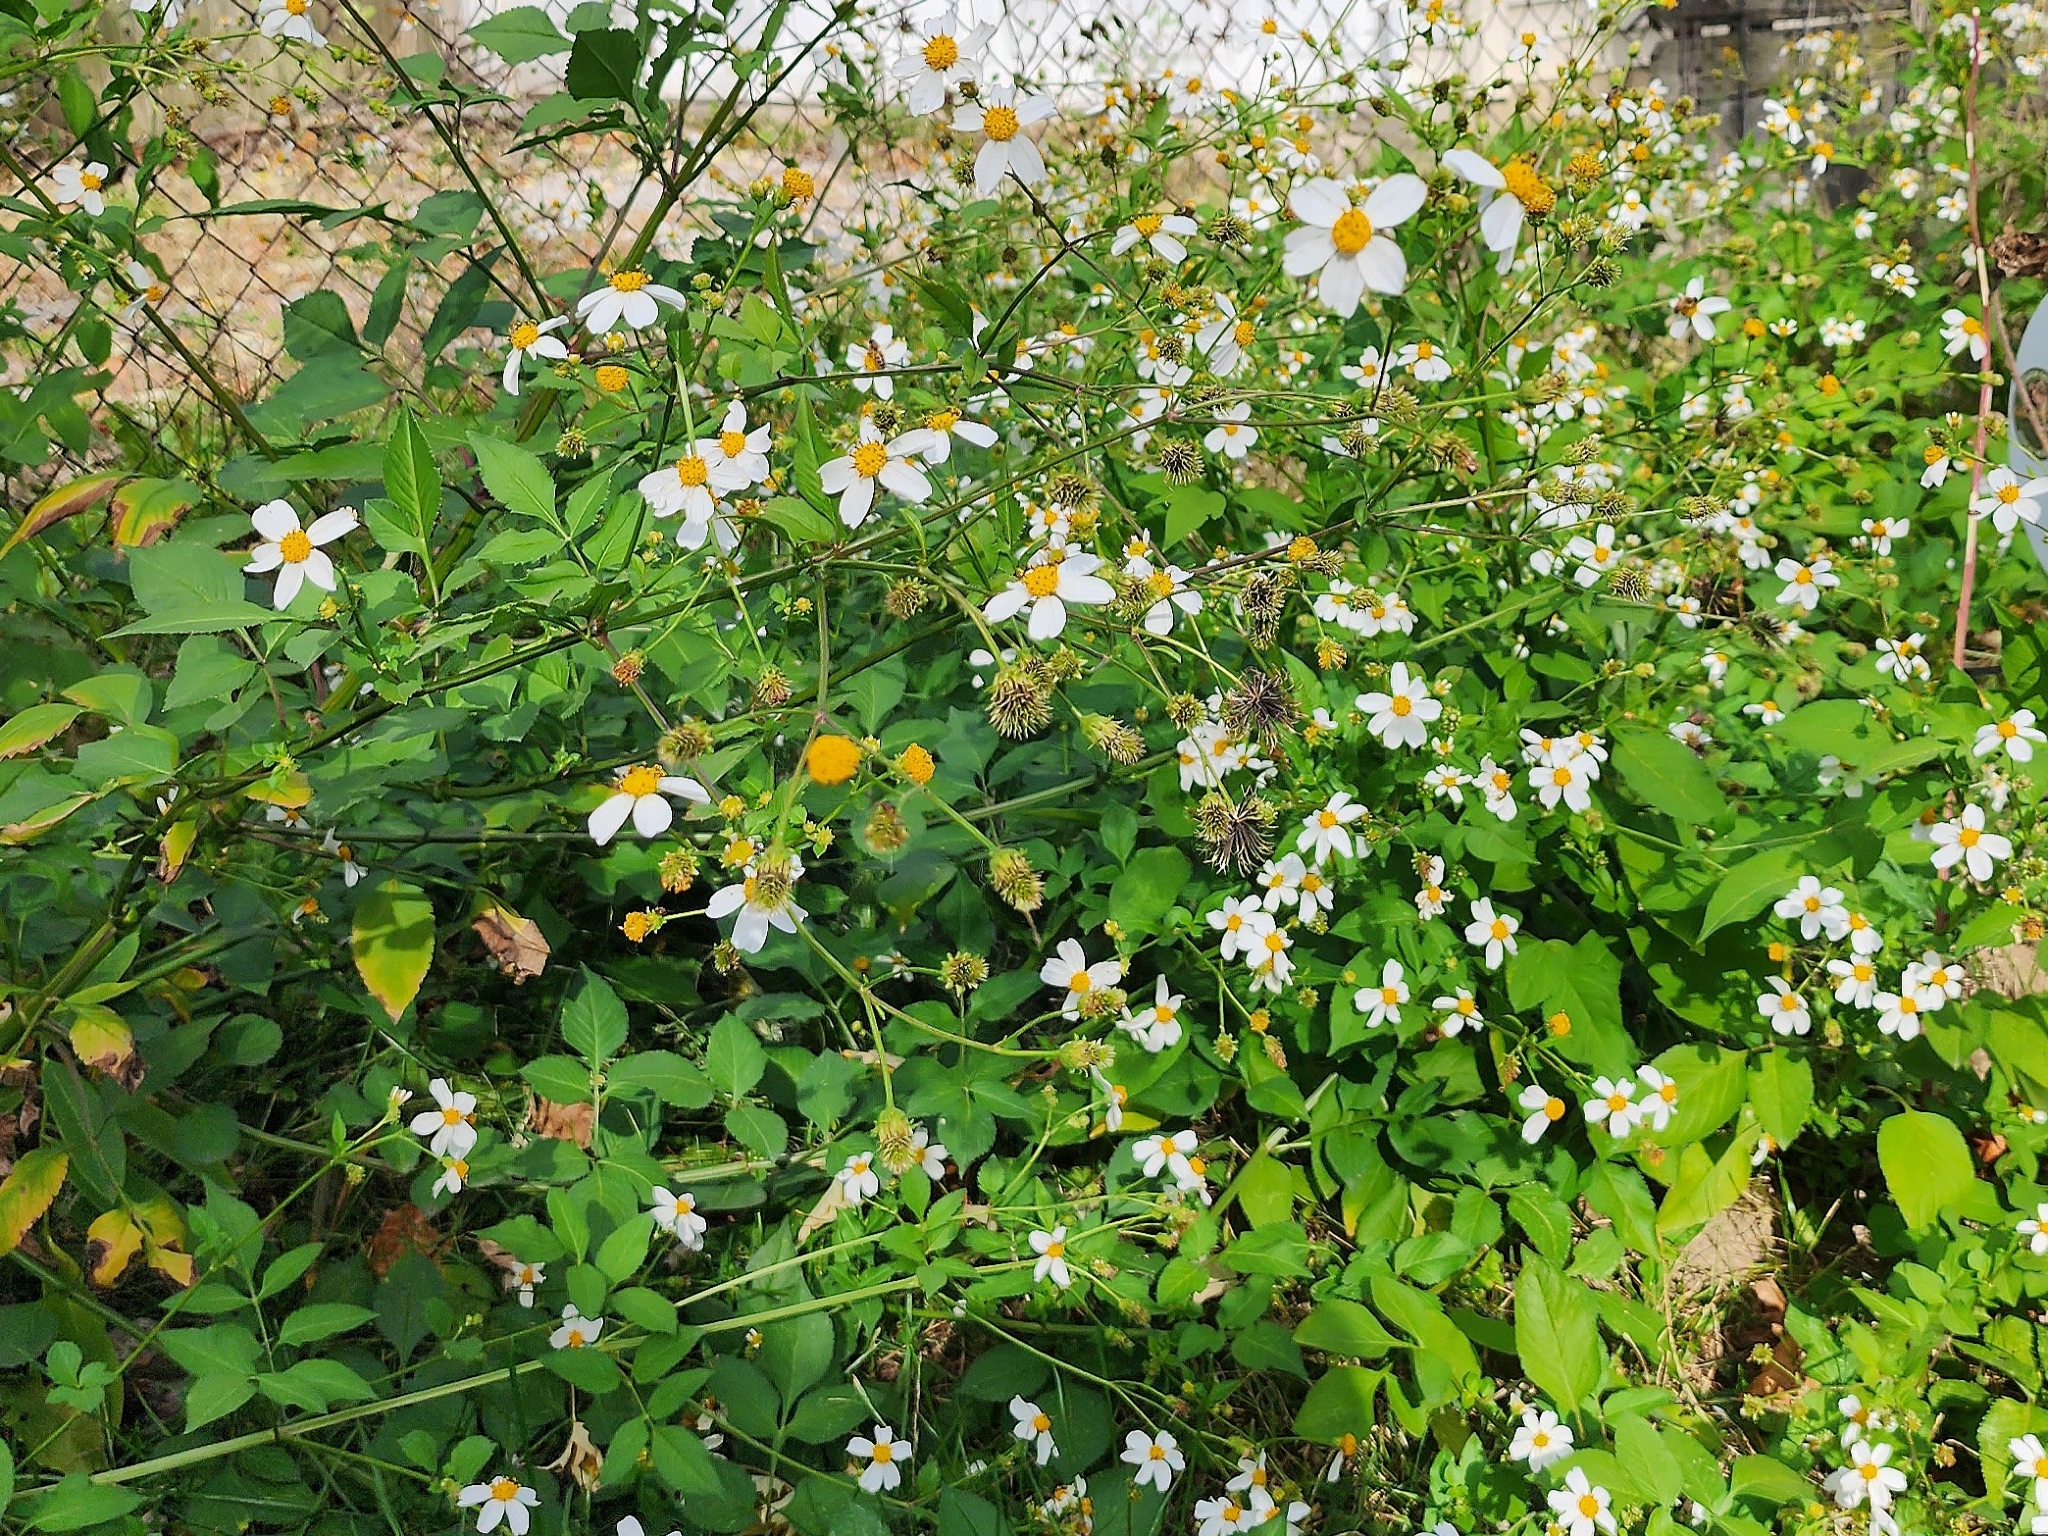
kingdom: Plantae
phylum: Tracheophyta
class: Magnoliopsida
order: Asterales
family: Asteraceae
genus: Bidens
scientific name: Bidens alba
